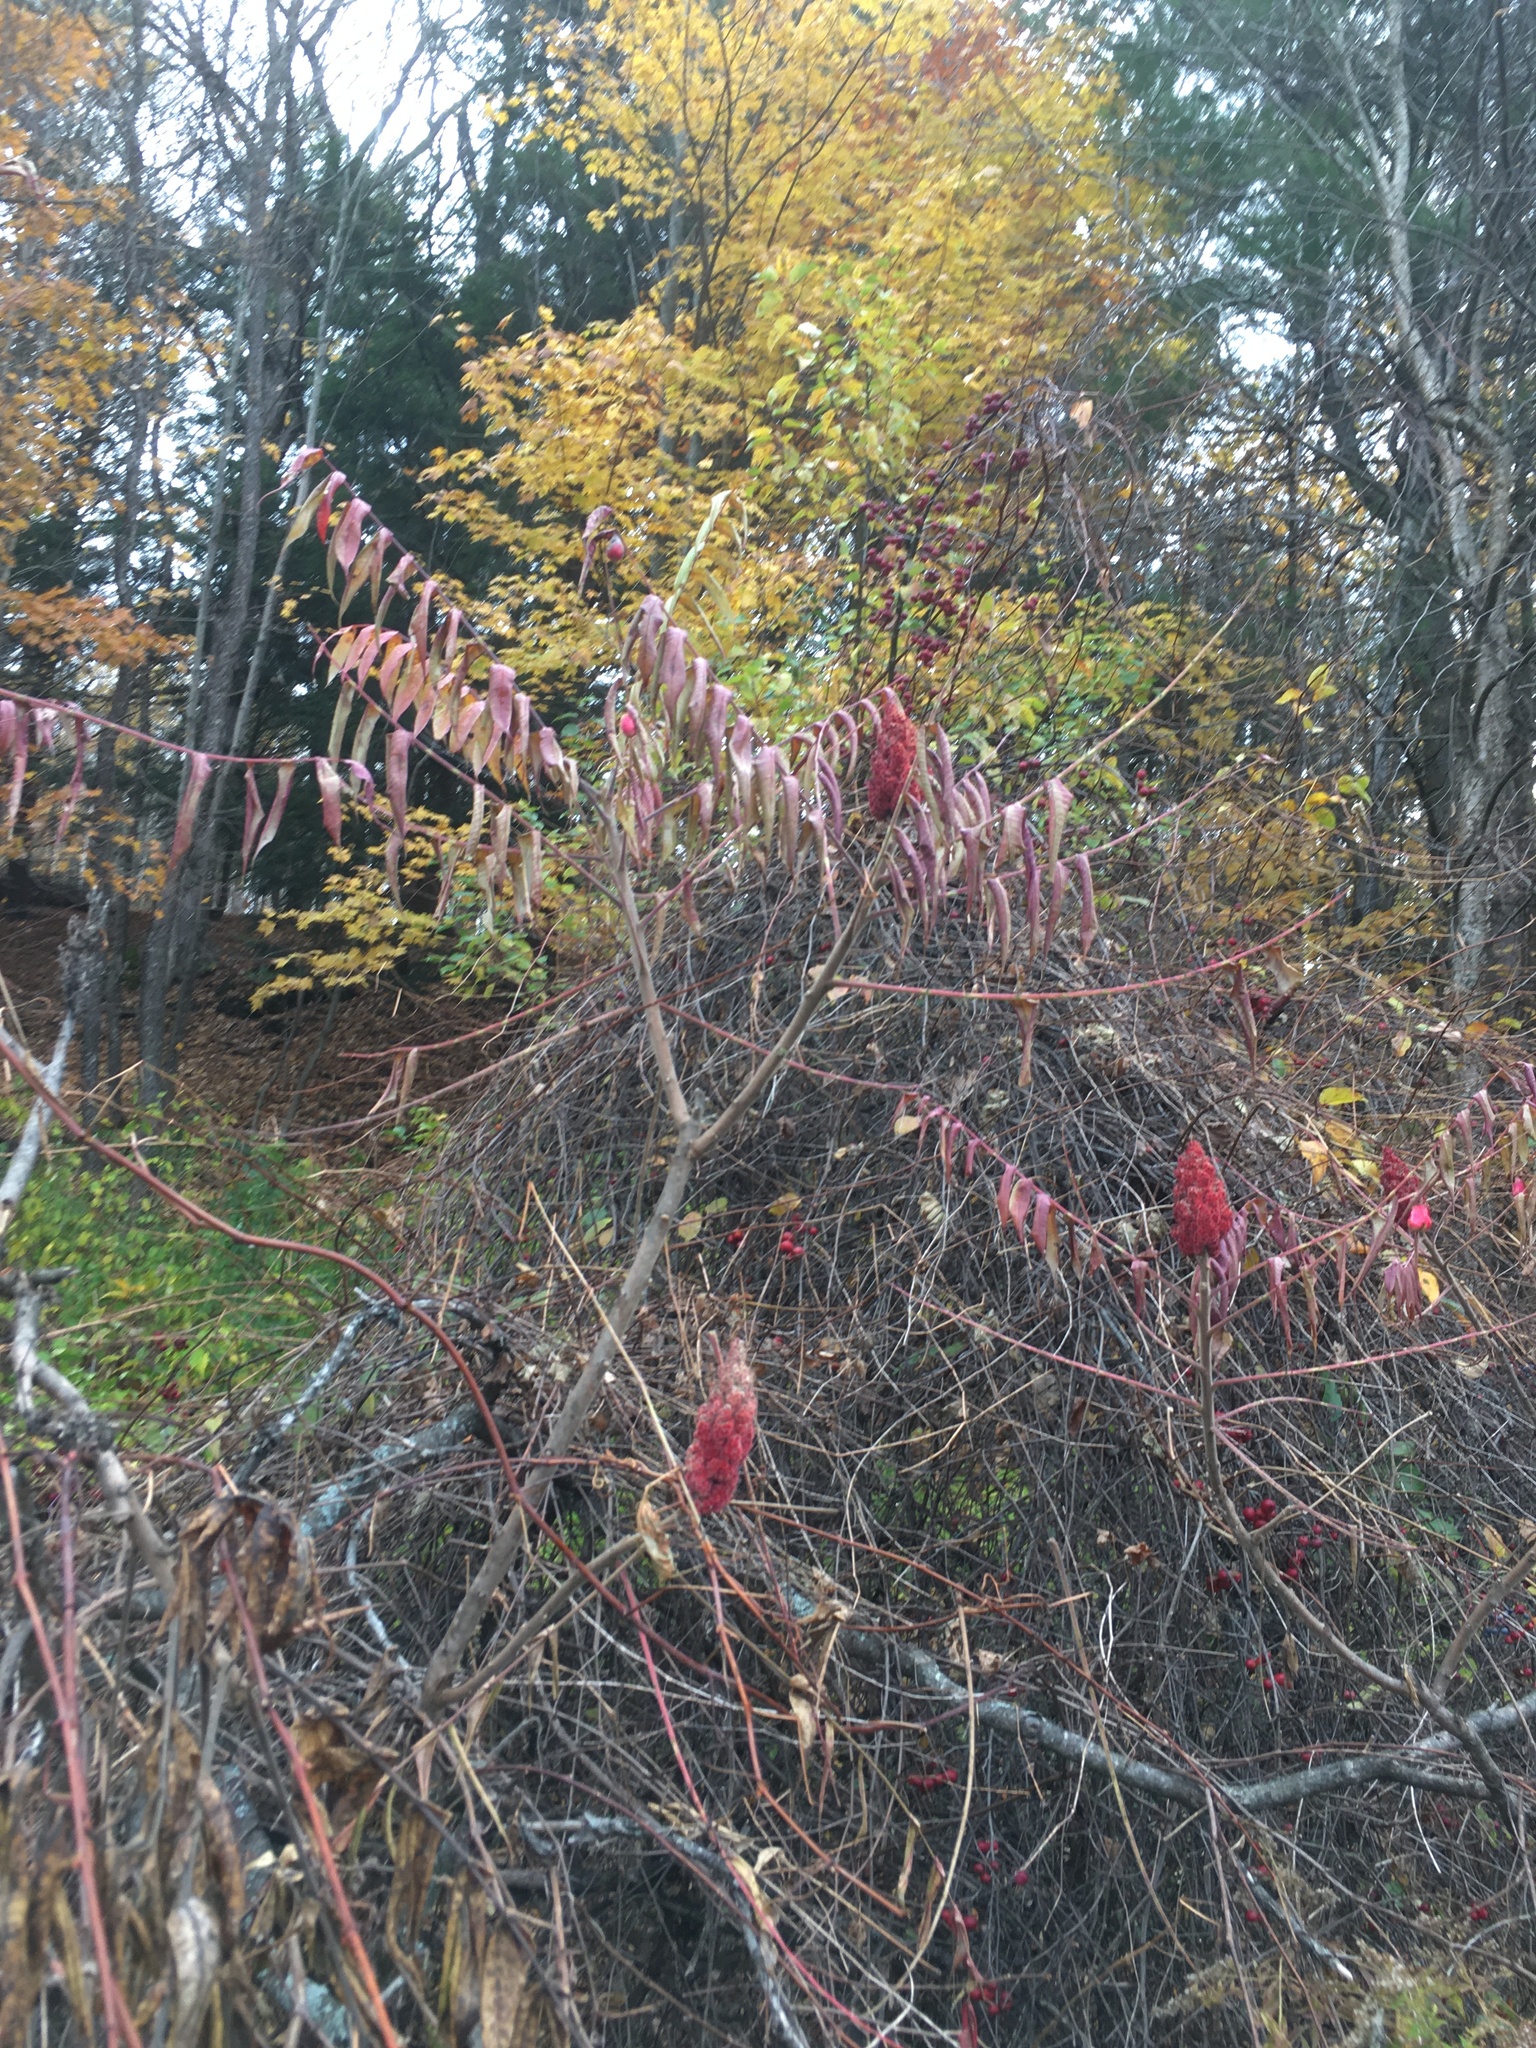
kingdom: Plantae
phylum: Tracheophyta
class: Magnoliopsida
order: Sapindales
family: Anacardiaceae
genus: Rhus
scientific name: Rhus typhina
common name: Staghorn sumac
